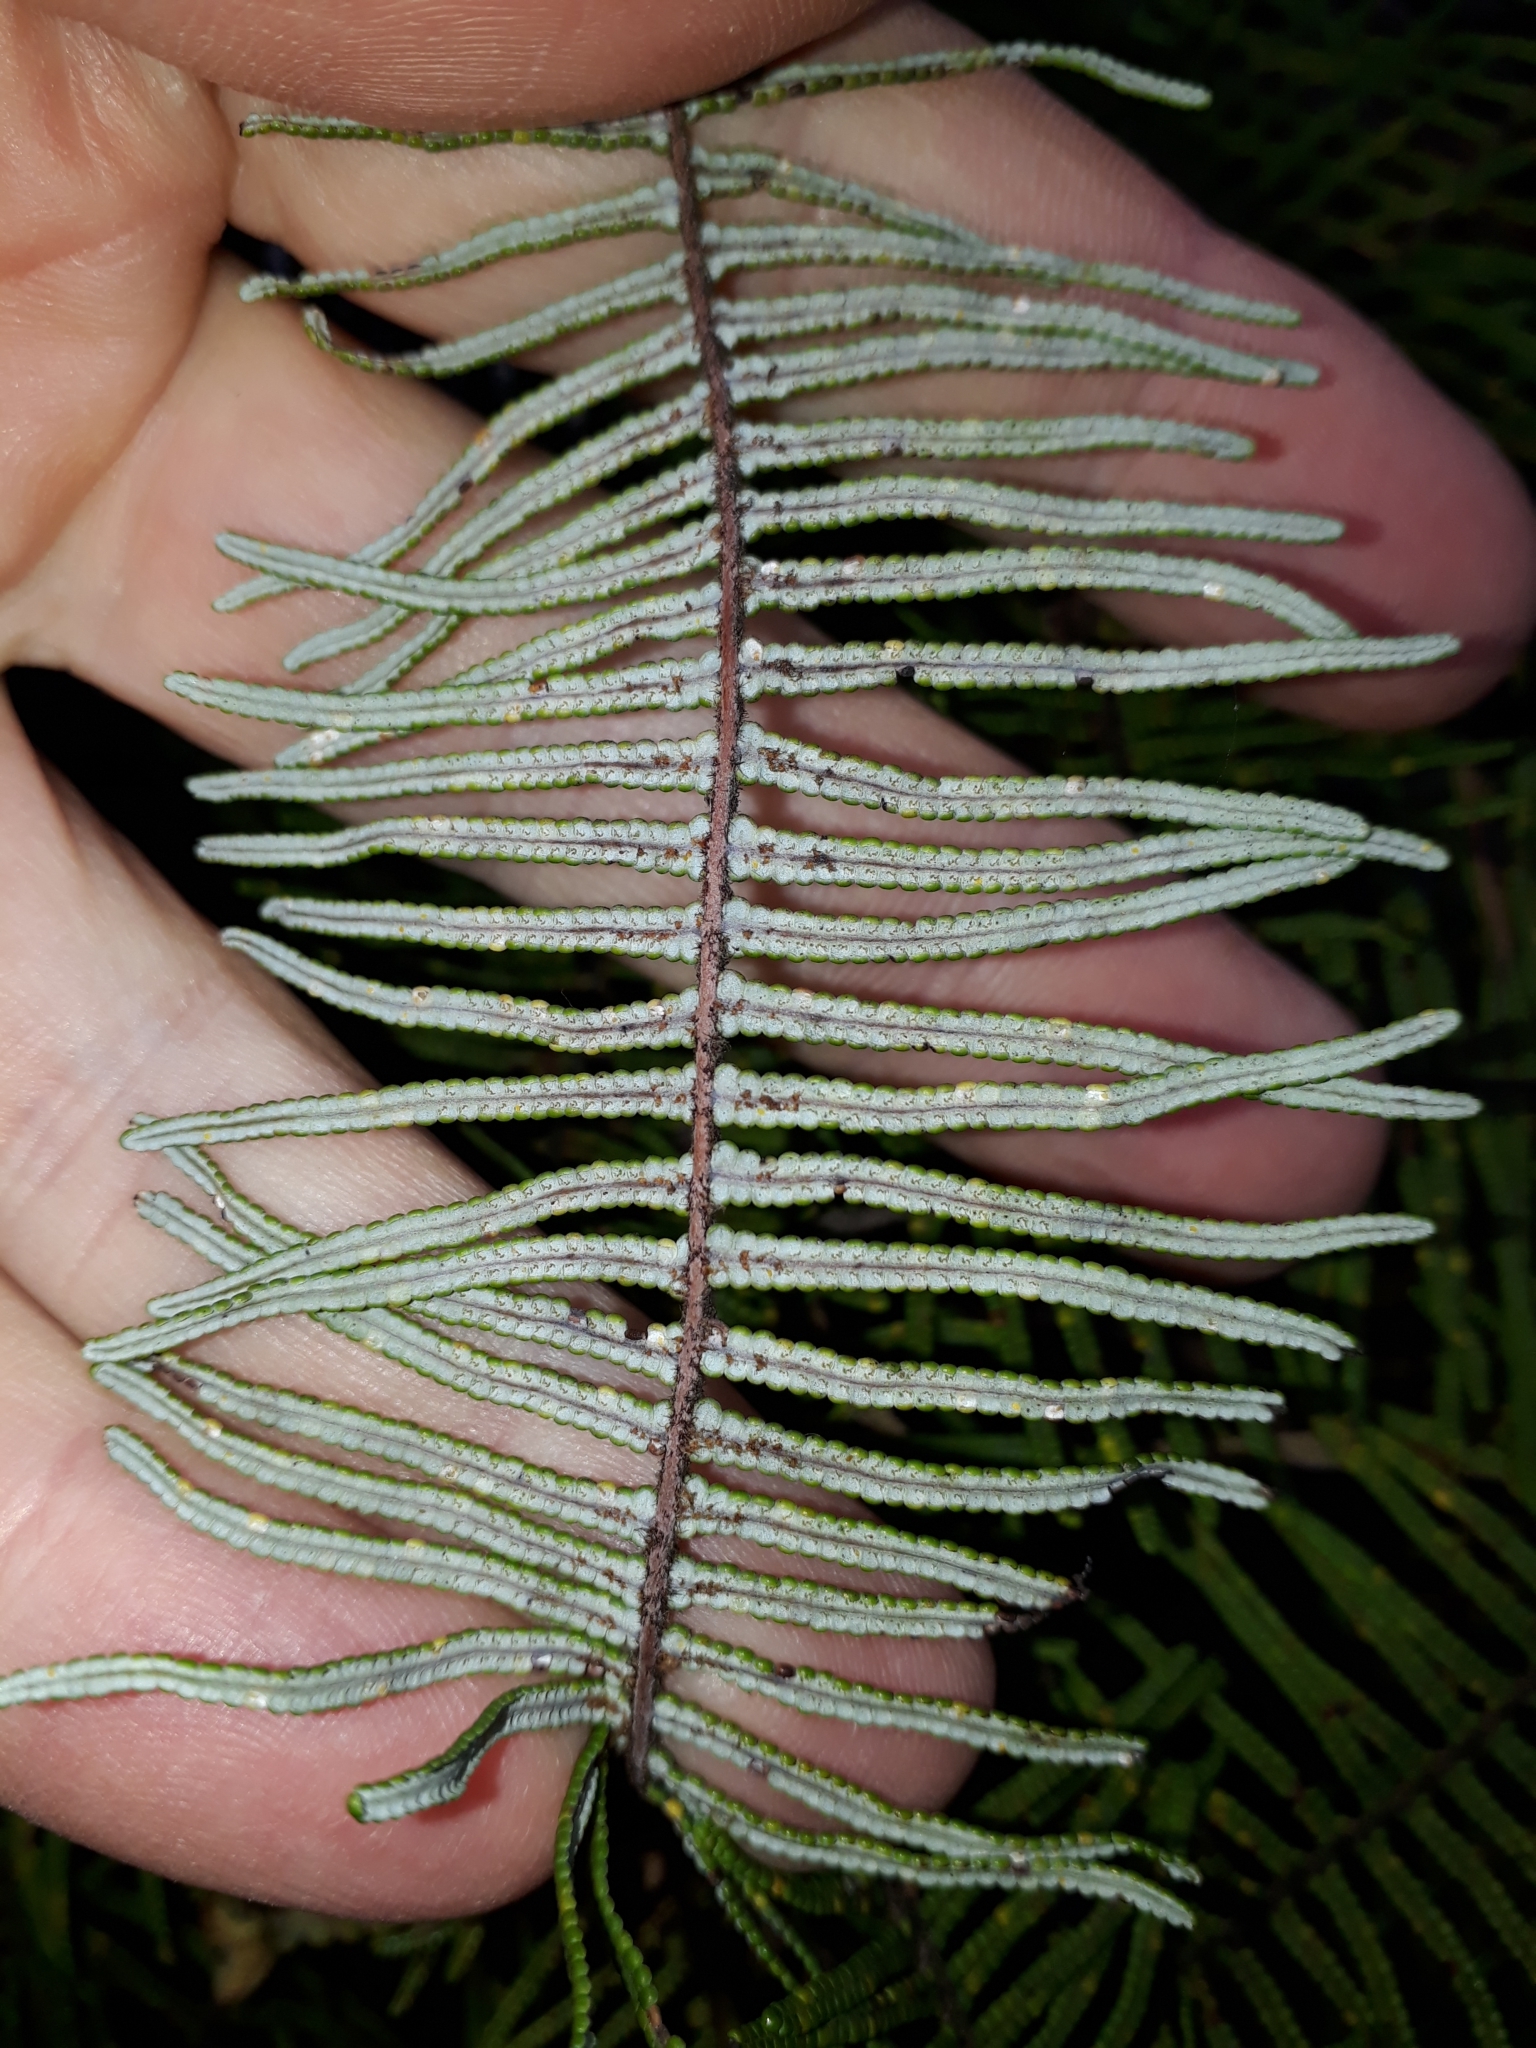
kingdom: Plantae
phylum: Tracheophyta
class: Polypodiopsida
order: Gleicheniales
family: Gleicheniaceae
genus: Gleichenia
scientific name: Gleichenia dicarpa
